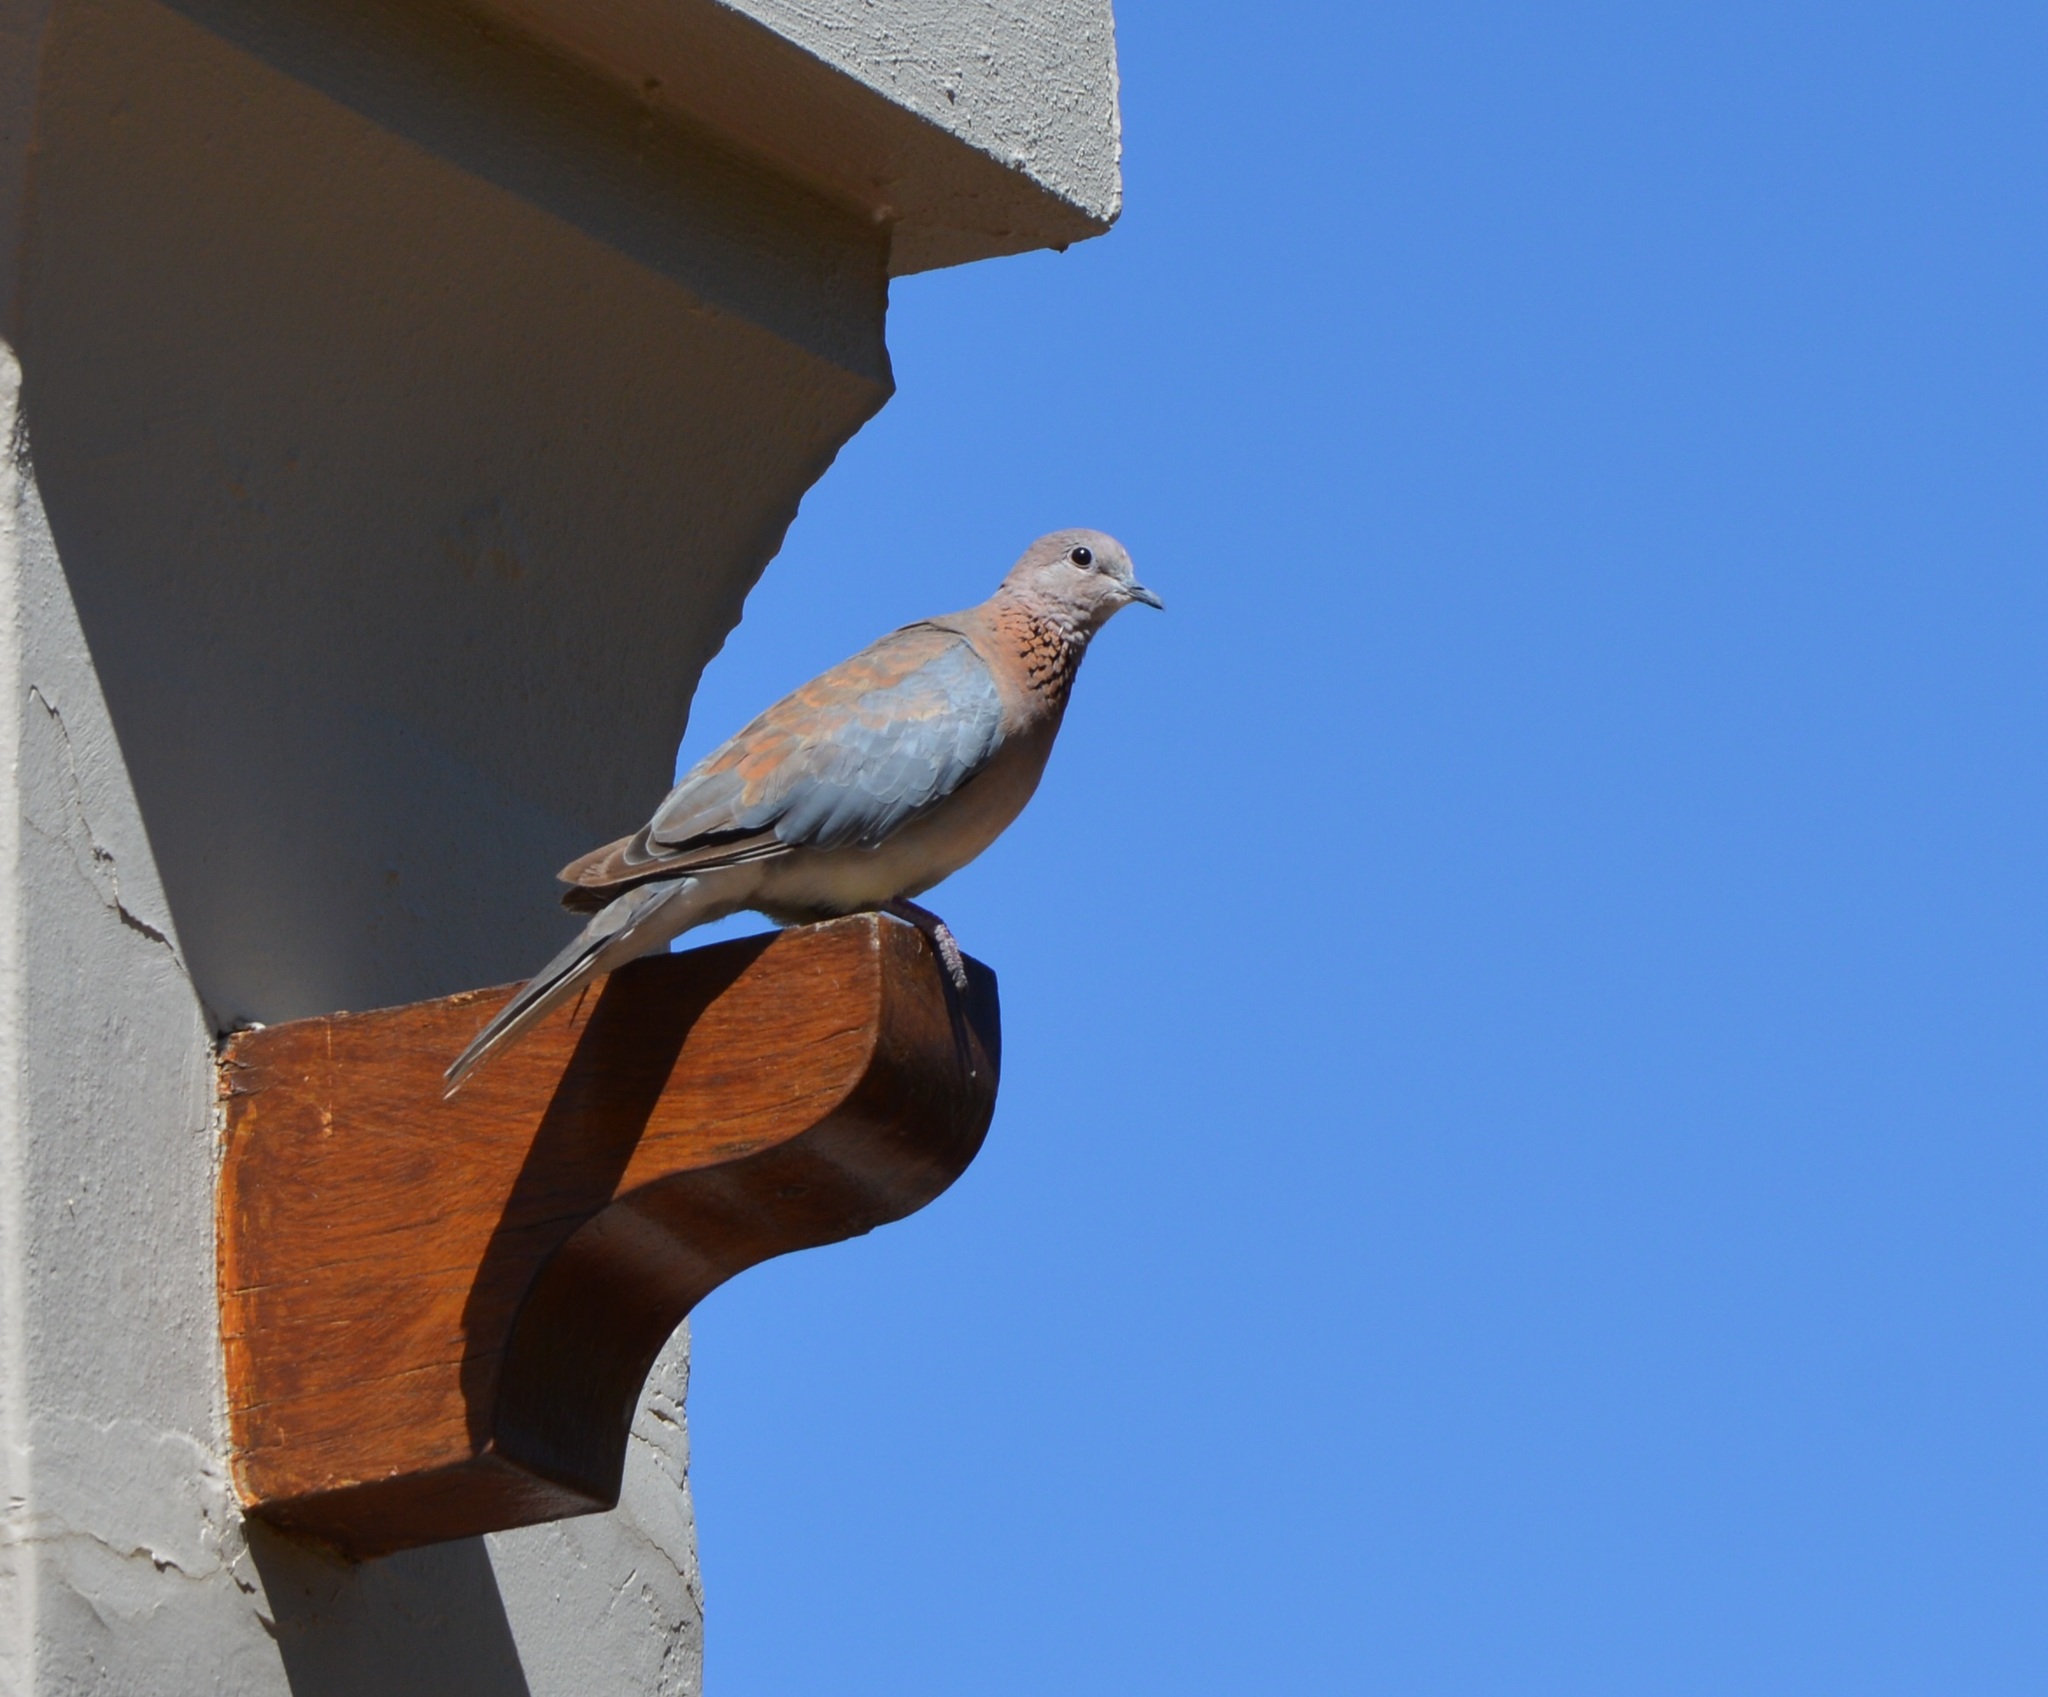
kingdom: Animalia
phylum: Chordata
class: Aves
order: Columbiformes
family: Columbidae
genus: Spilopelia
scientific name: Spilopelia senegalensis
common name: Laughing dove
